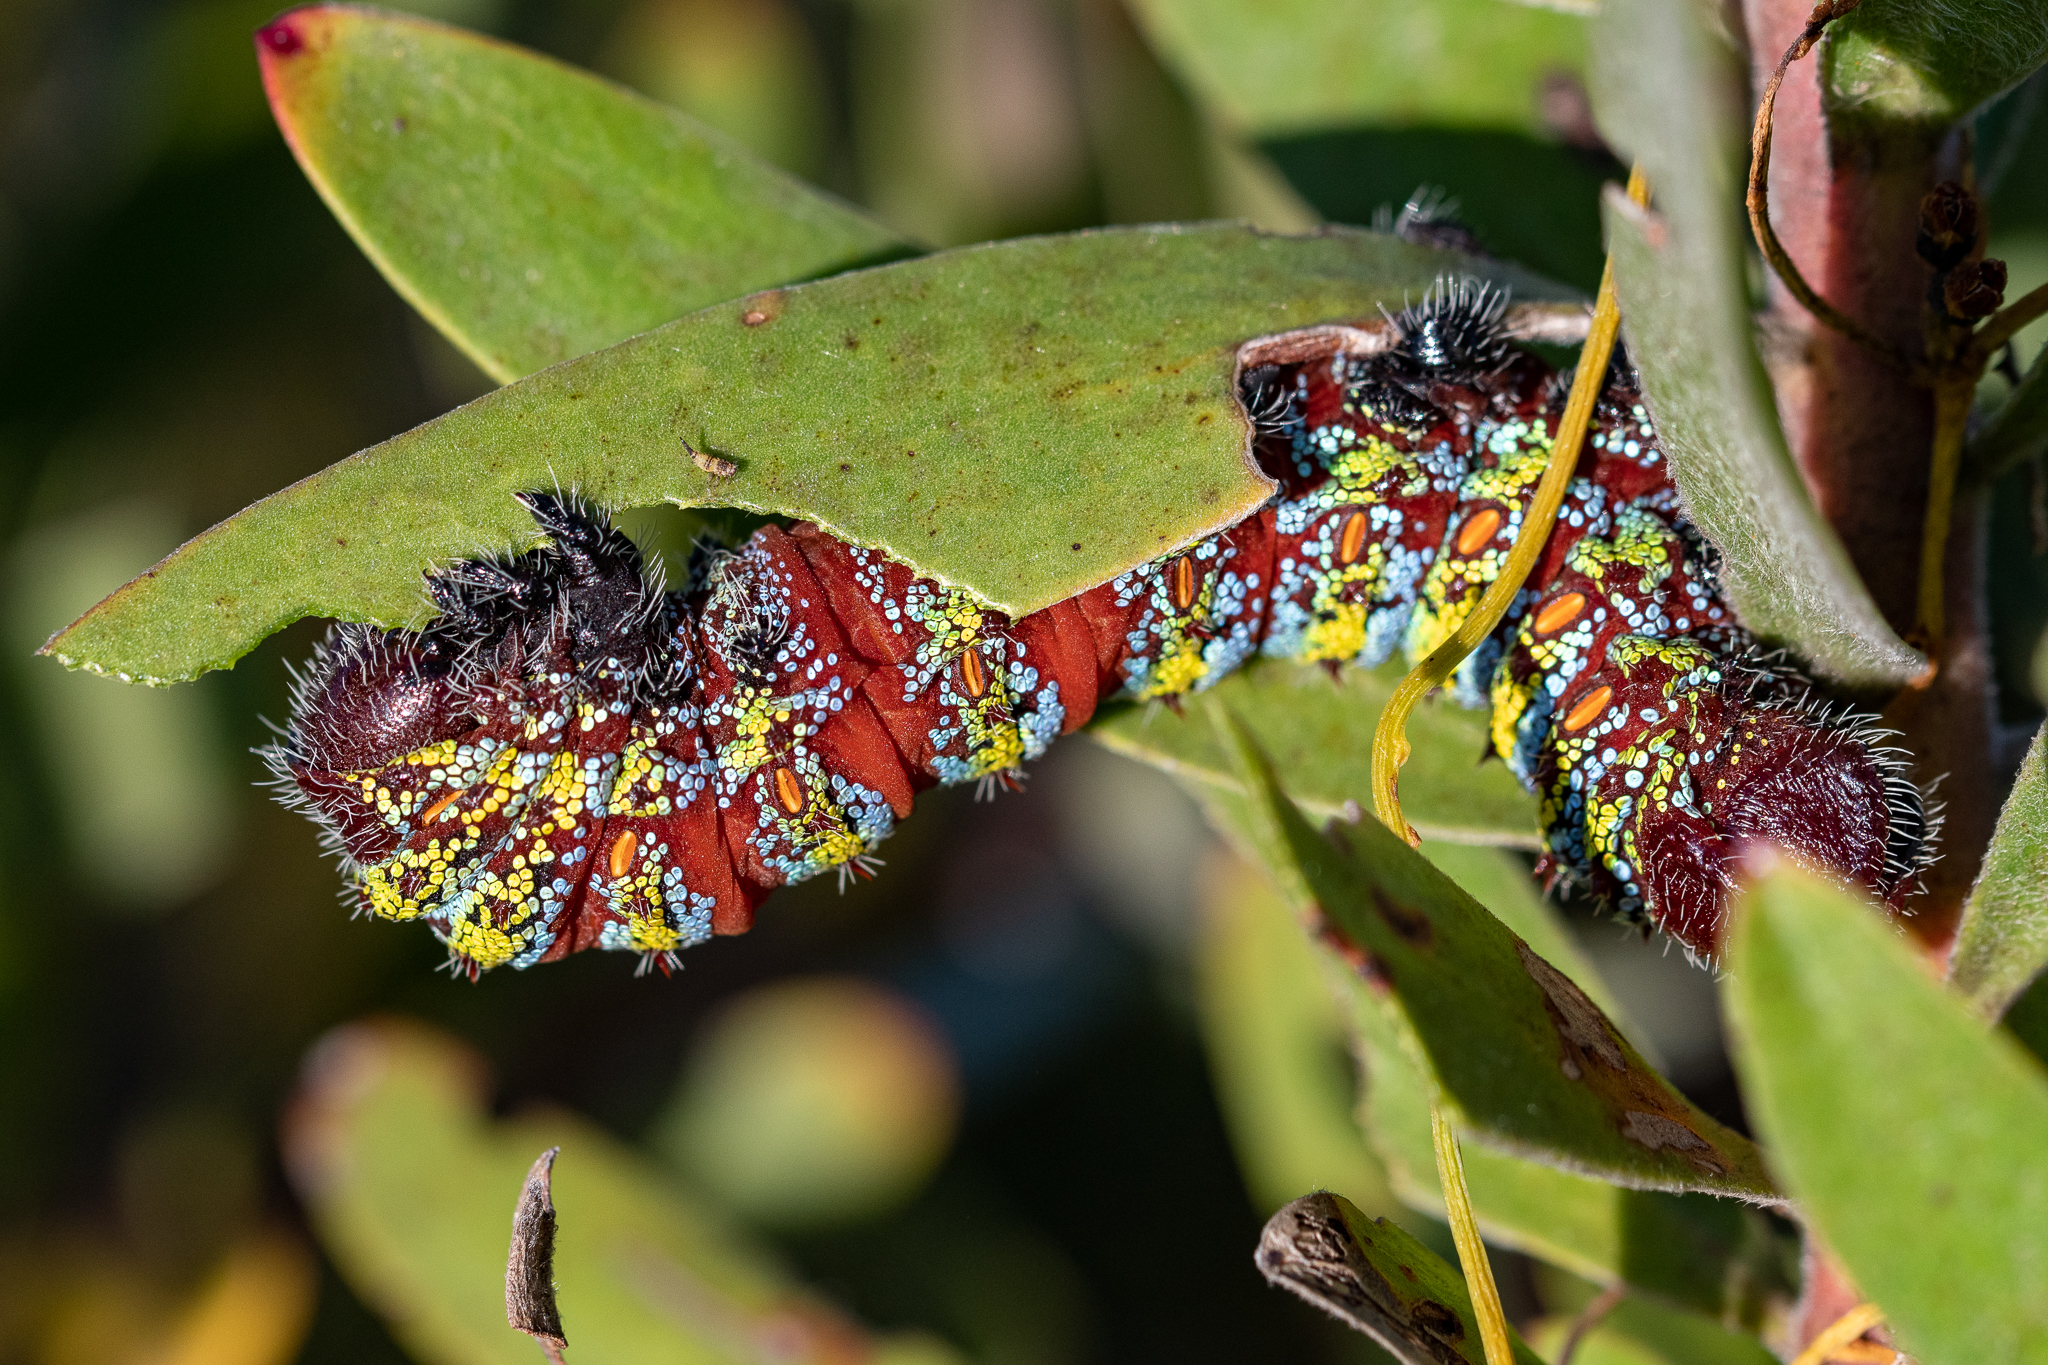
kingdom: Animalia
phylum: Arthropoda
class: Insecta
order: Lepidoptera
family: Saturniidae
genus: Nudaurelia
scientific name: Nudaurelia cytherea
